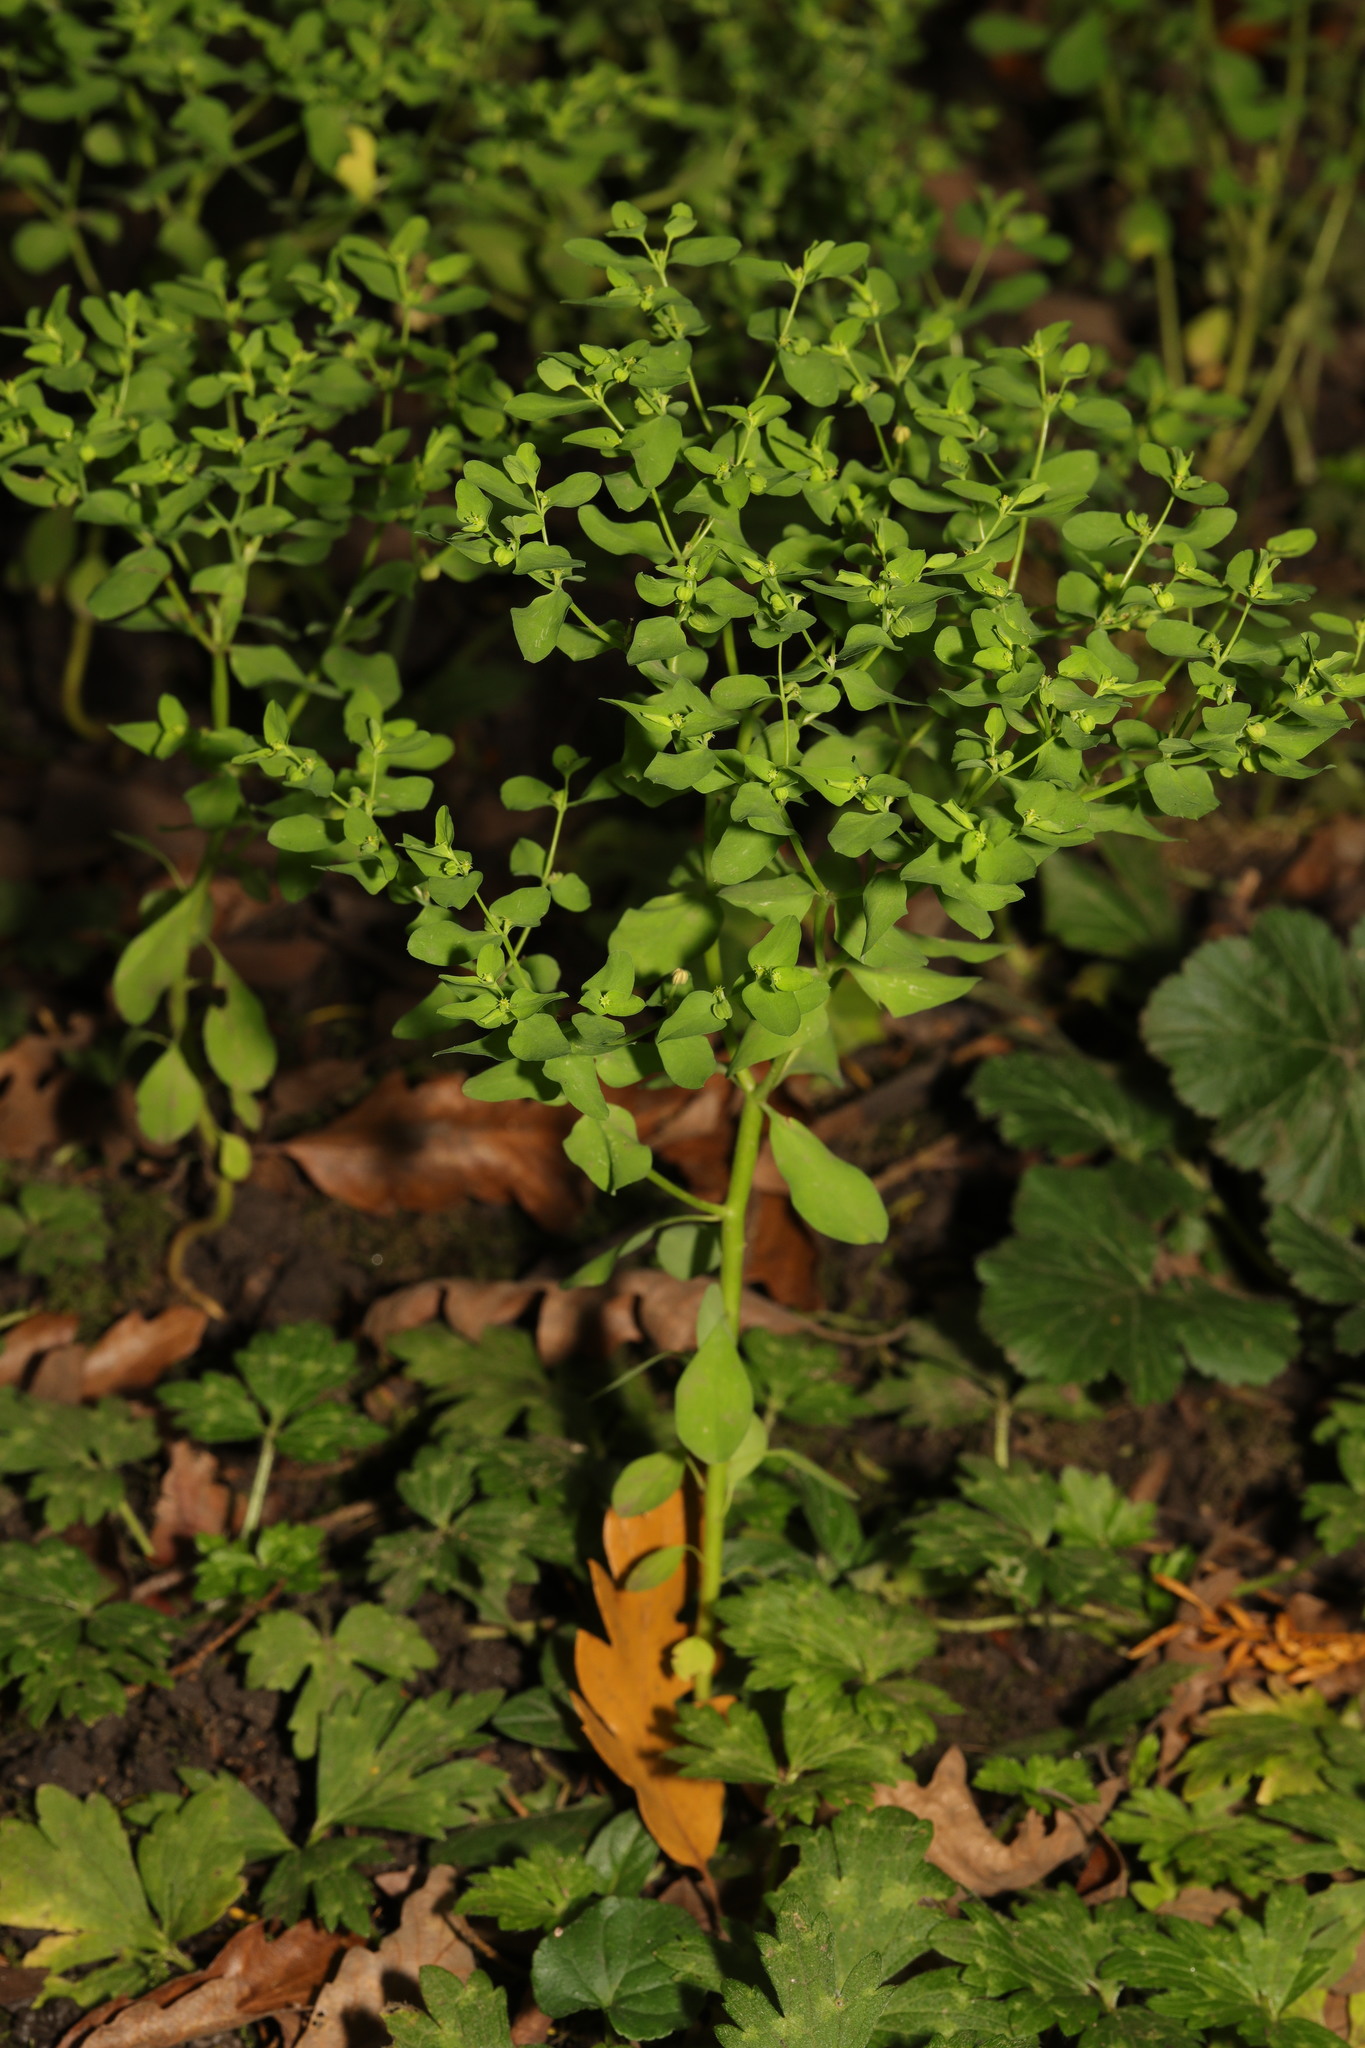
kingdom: Plantae
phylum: Tracheophyta
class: Magnoliopsida
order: Malpighiales
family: Euphorbiaceae
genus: Euphorbia
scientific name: Euphorbia peplus
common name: Petty spurge
